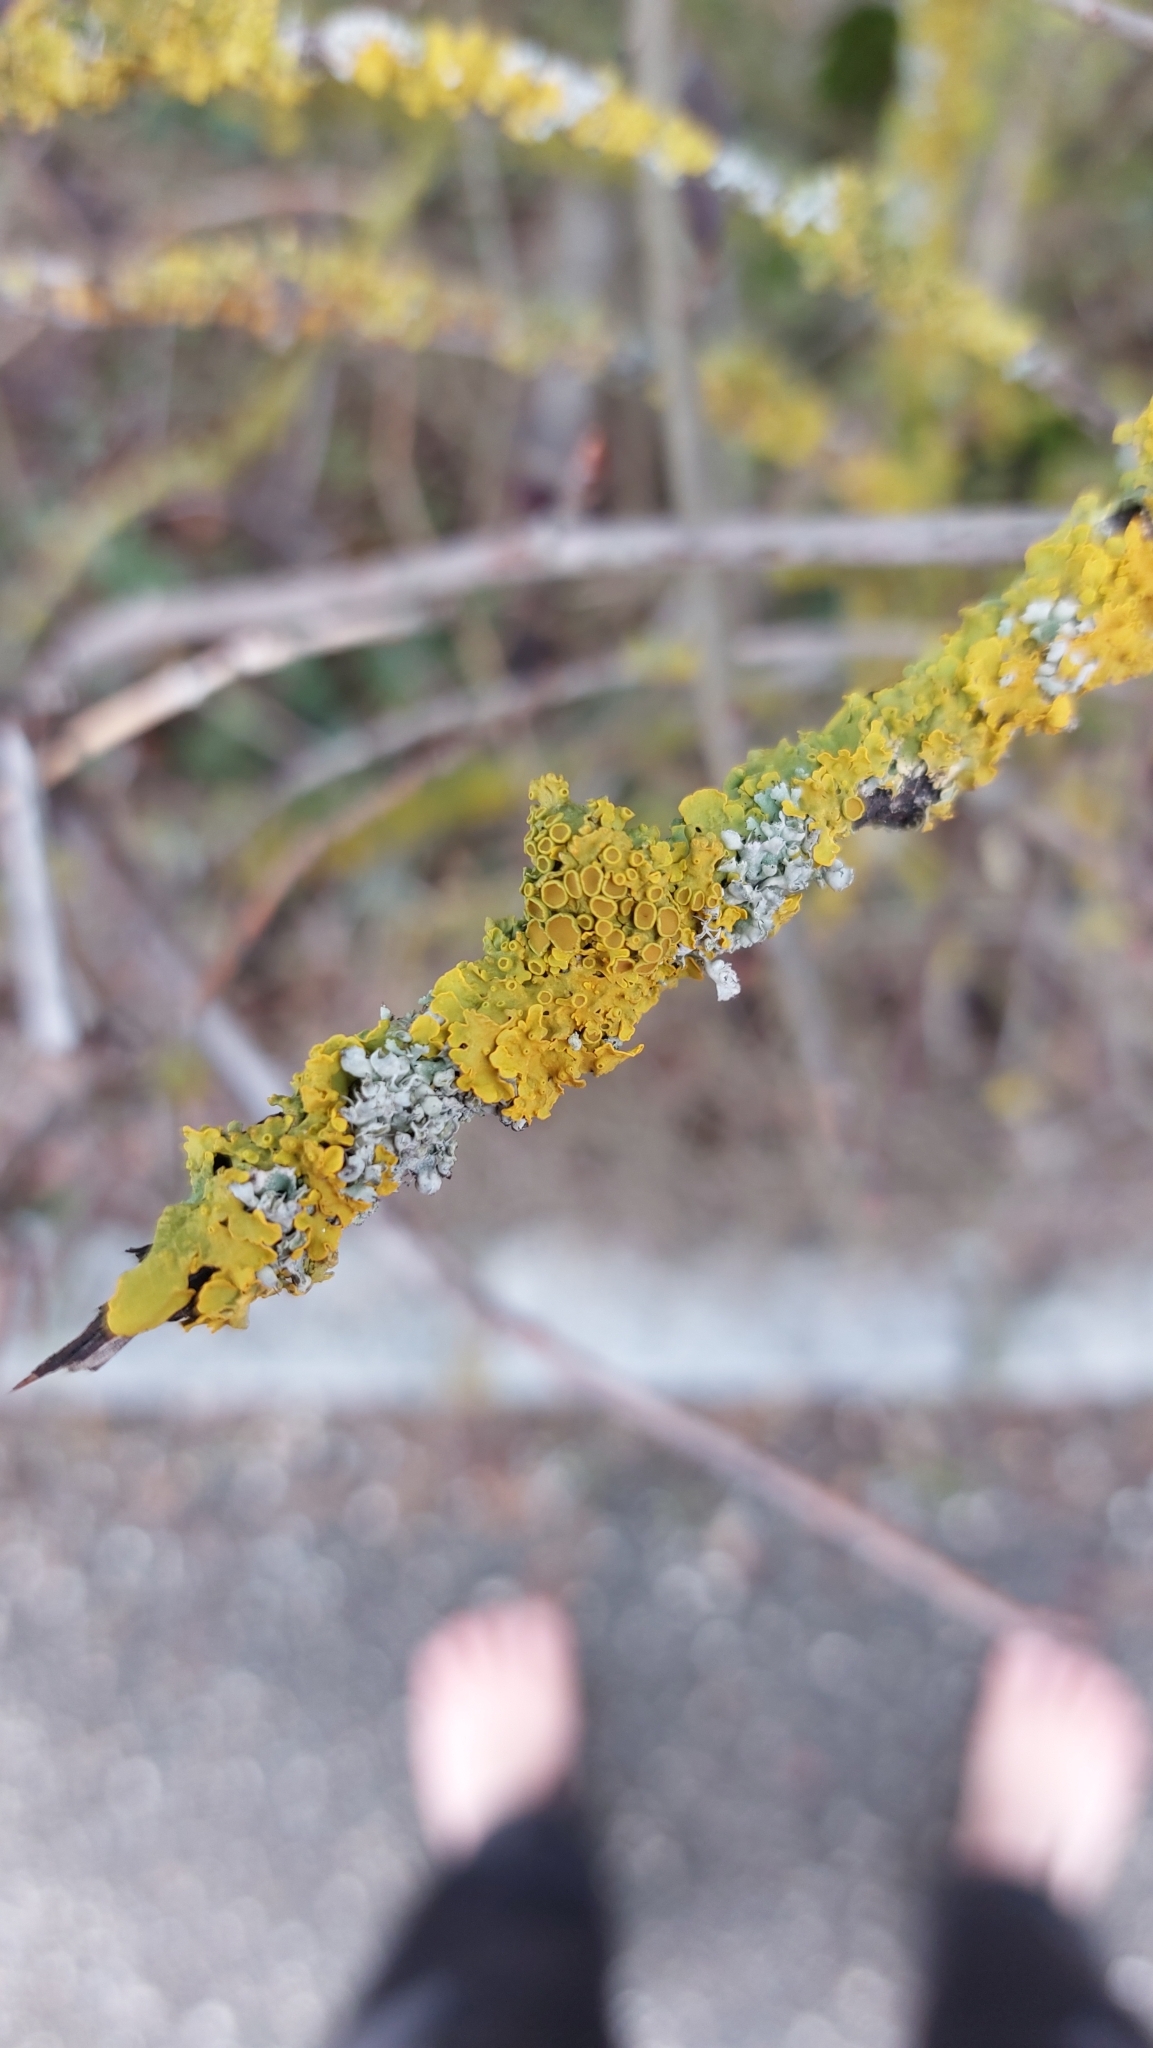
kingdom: Fungi
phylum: Ascomycota
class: Lecanoromycetes
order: Teloschistales
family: Teloschistaceae
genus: Xanthoria
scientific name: Xanthoria parietina
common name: Common orange lichen
